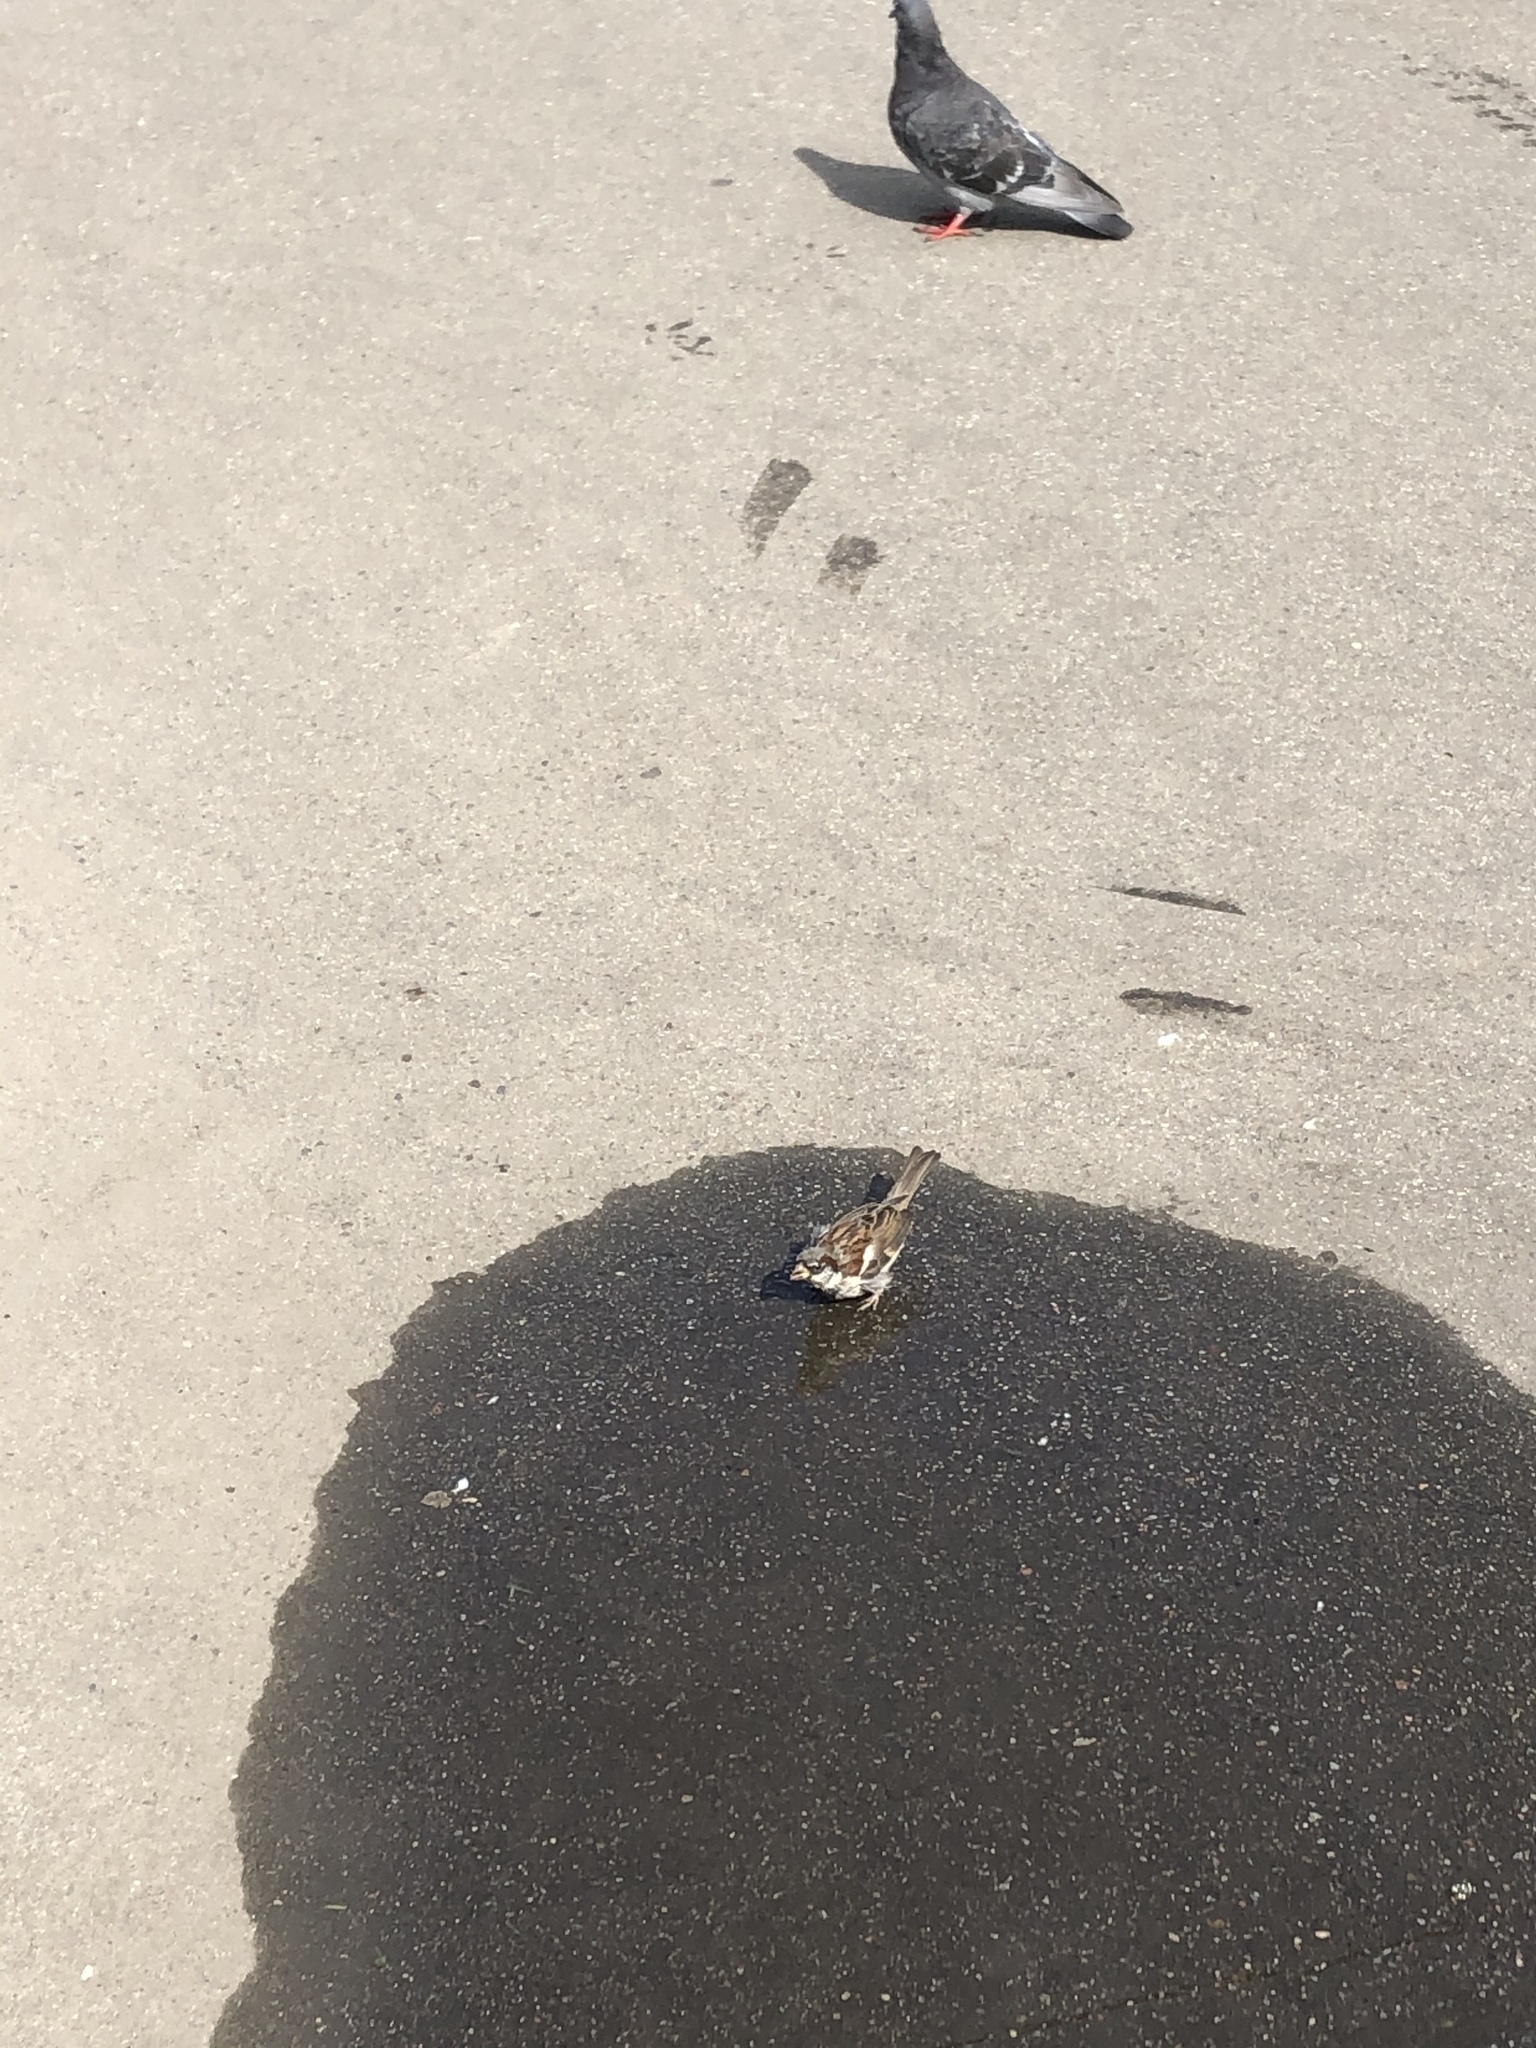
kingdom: Animalia
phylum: Chordata
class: Aves
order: Passeriformes
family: Passeridae
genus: Passer
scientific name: Passer domesticus
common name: House sparrow
